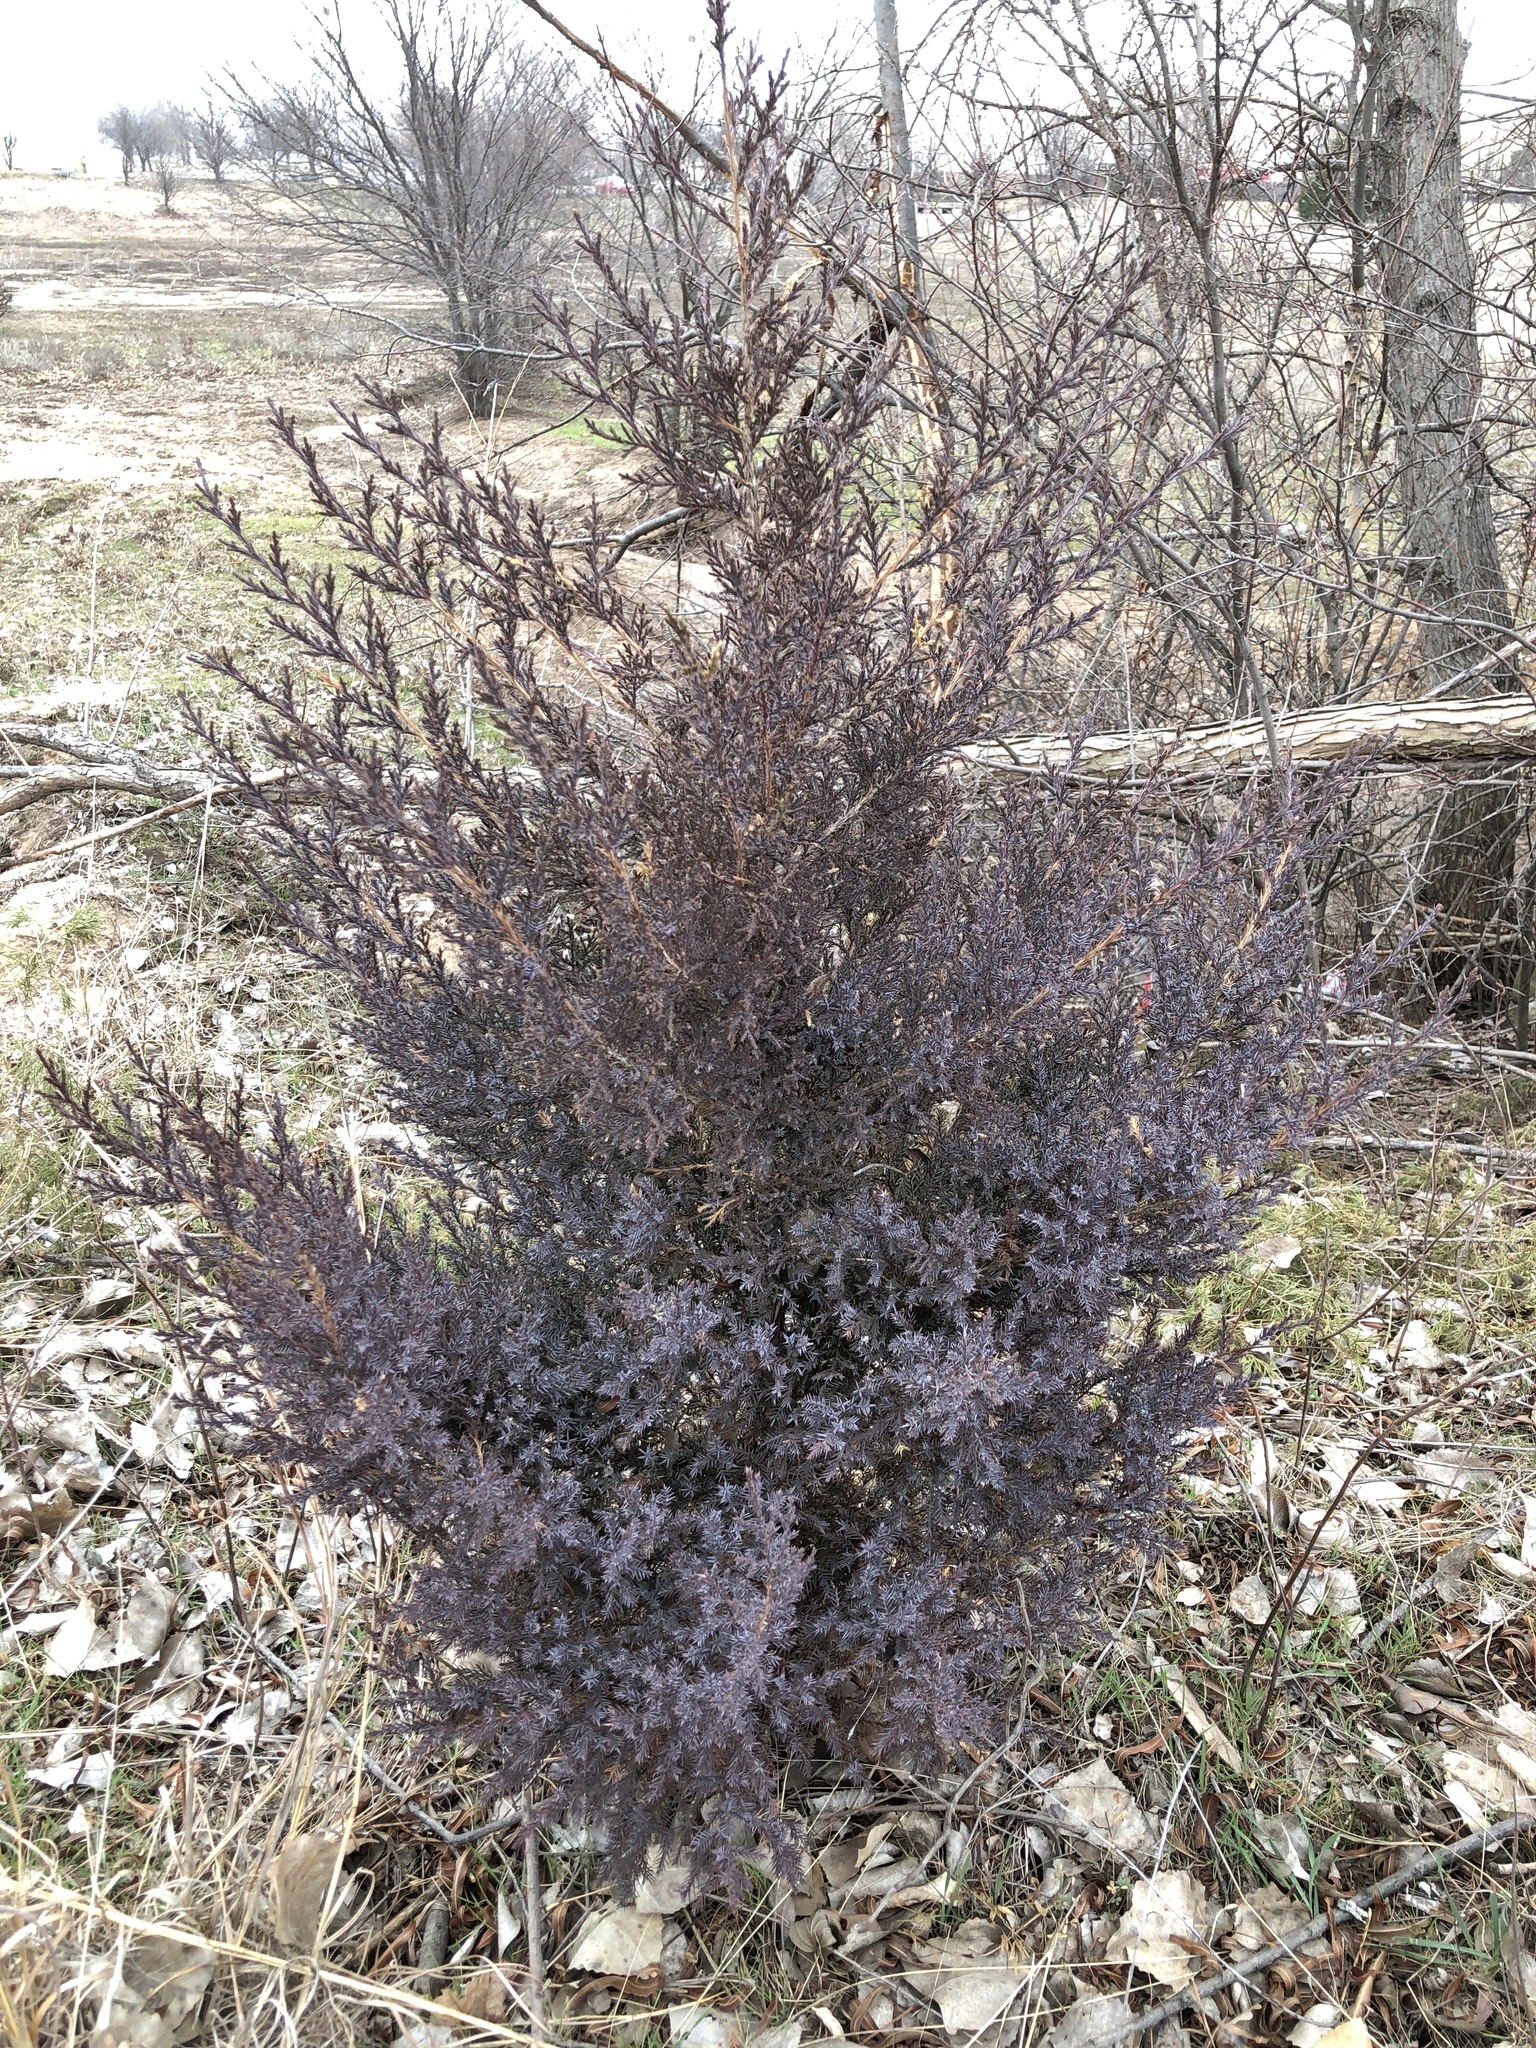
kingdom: Plantae
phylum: Tracheophyta
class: Pinopsida
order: Pinales
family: Cupressaceae
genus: Juniperus
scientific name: Juniperus virginiana
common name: Red juniper
